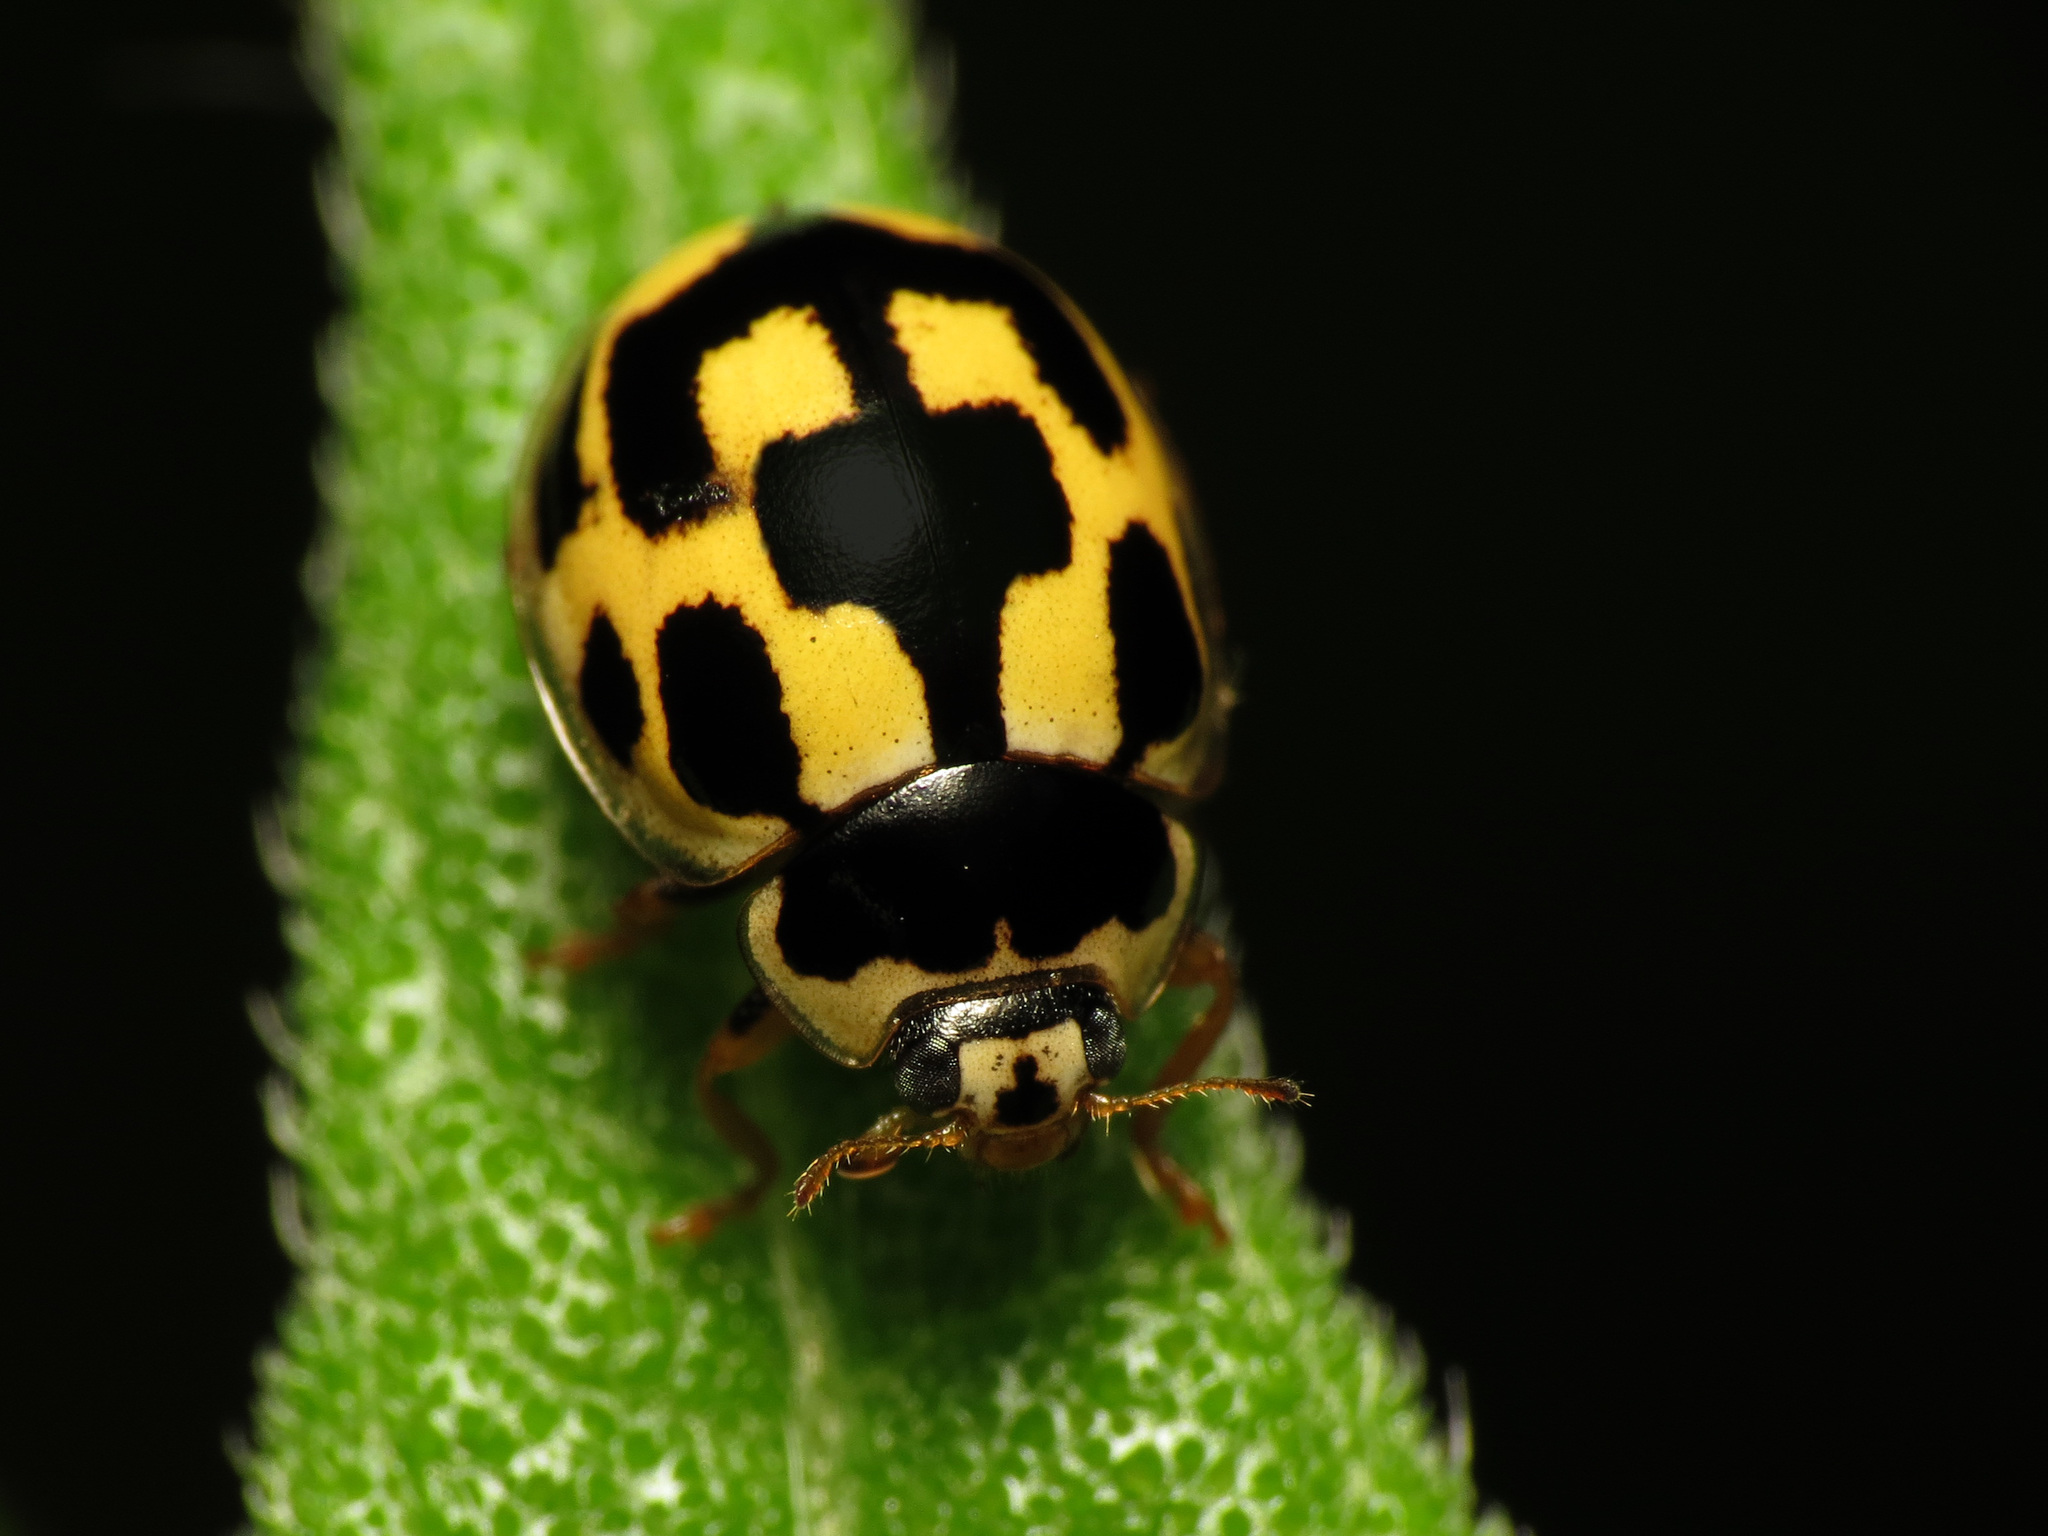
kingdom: Animalia
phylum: Arthropoda
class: Insecta
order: Coleoptera
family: Coccinellidae
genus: Propylaea
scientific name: Propylaea quatuordecimpunctata
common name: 14-spotted ladybird beetle
